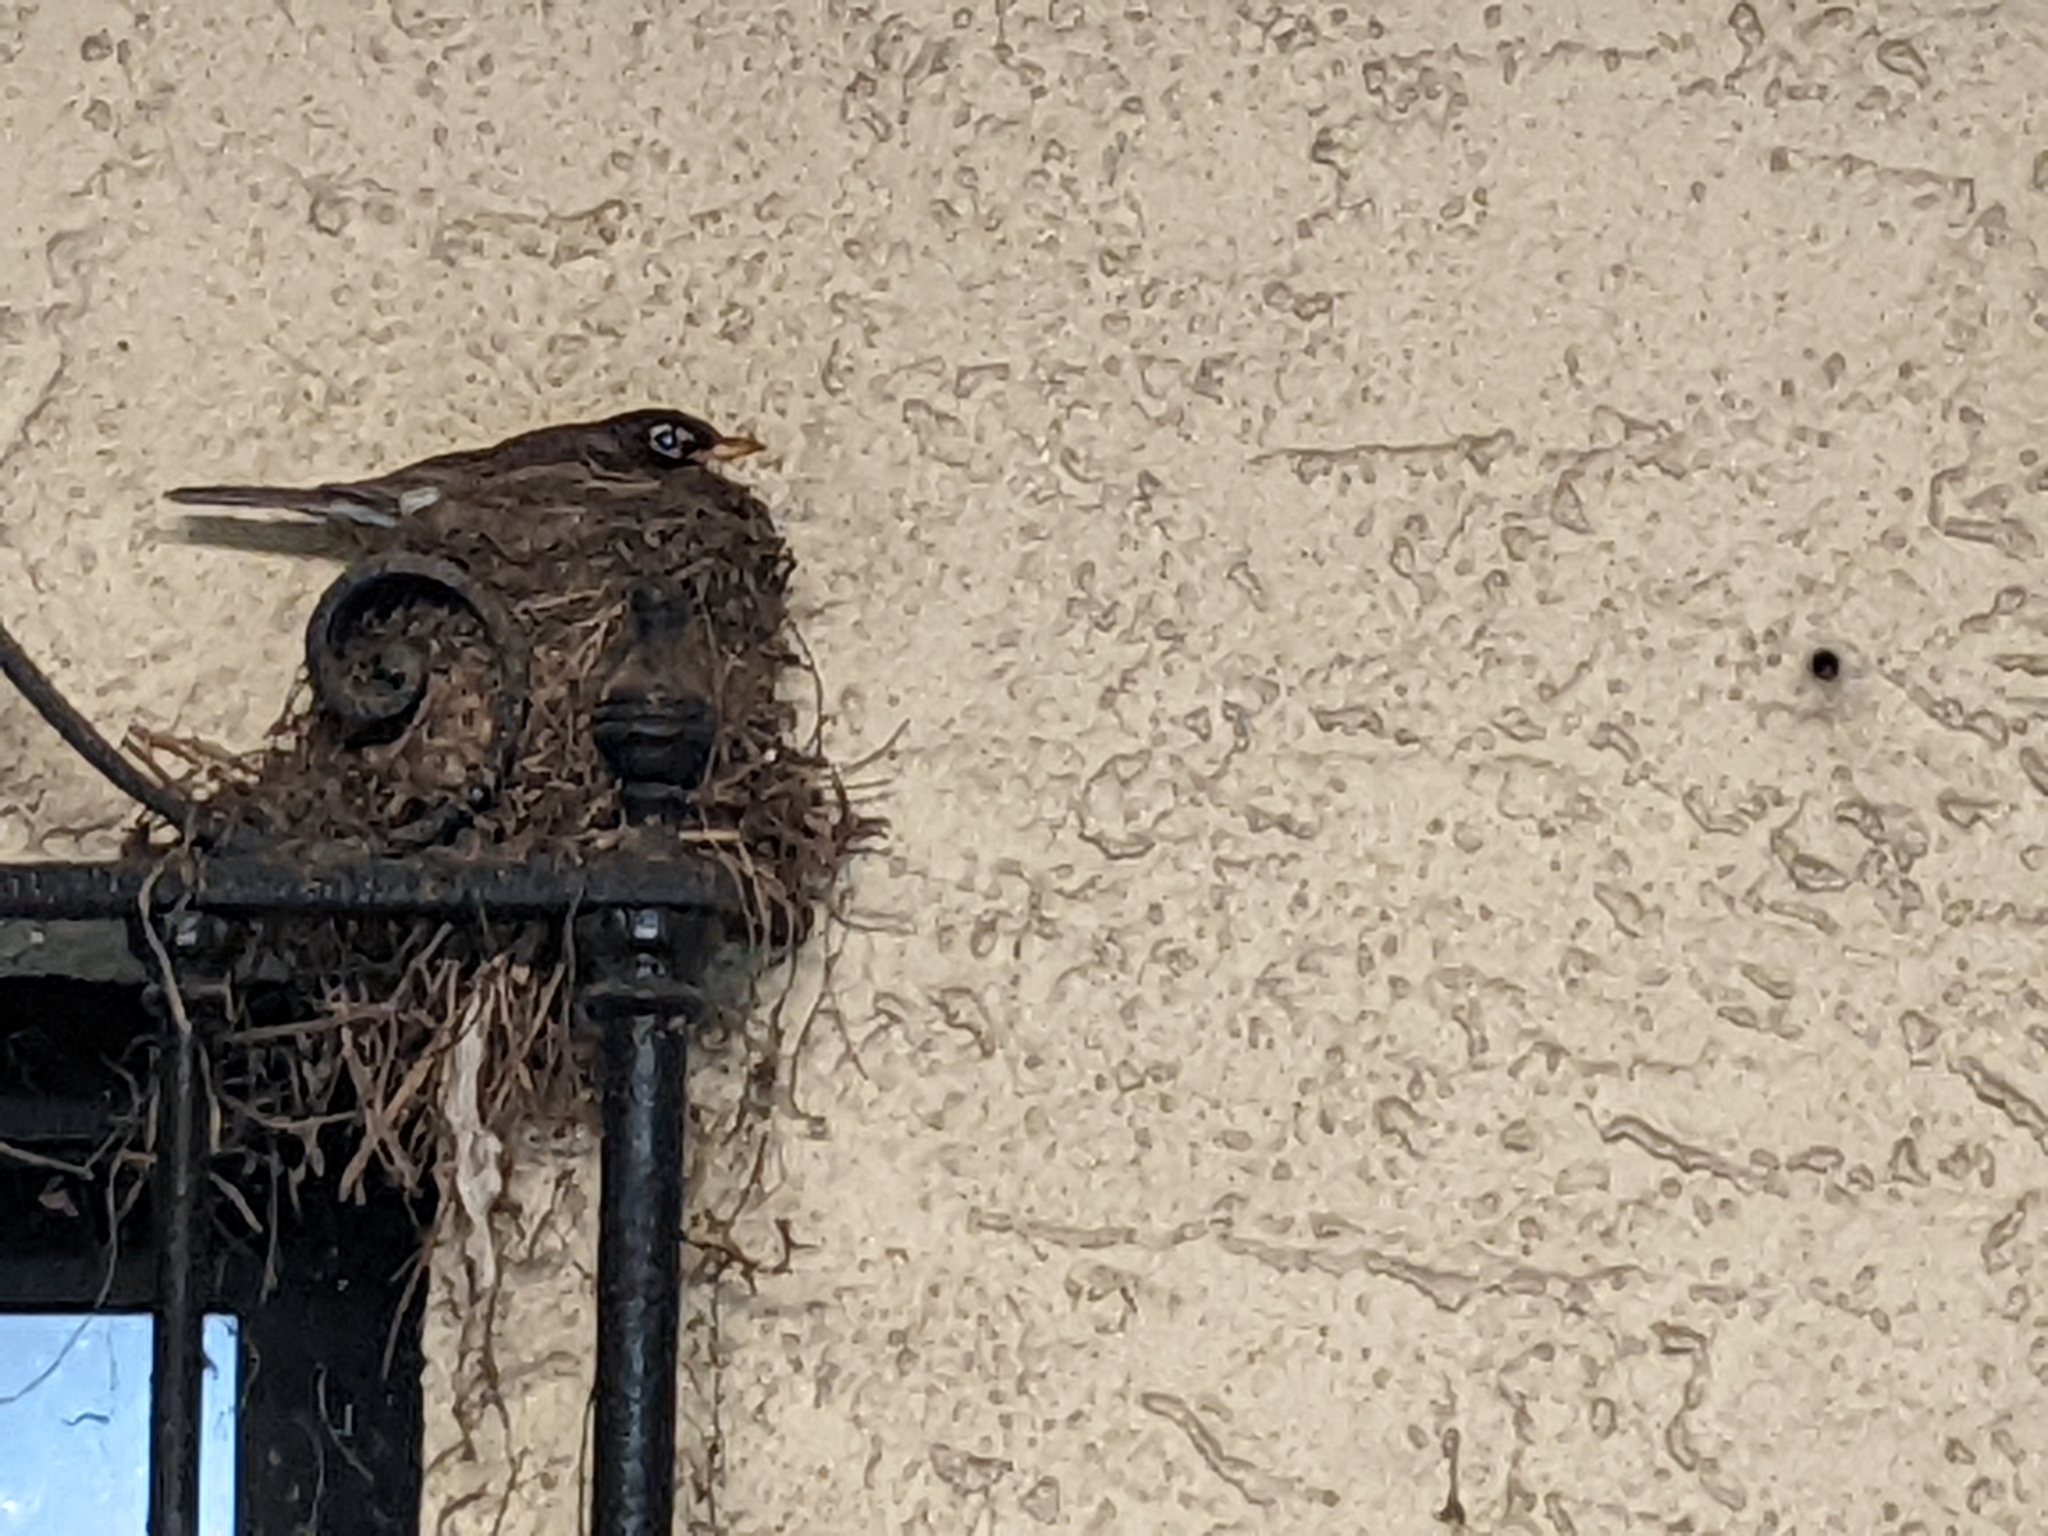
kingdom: Animalia
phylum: Chordata
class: Aves
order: Passeriformes
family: Turdidae
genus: Turdus
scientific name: Turdus migratorius
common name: American robin
